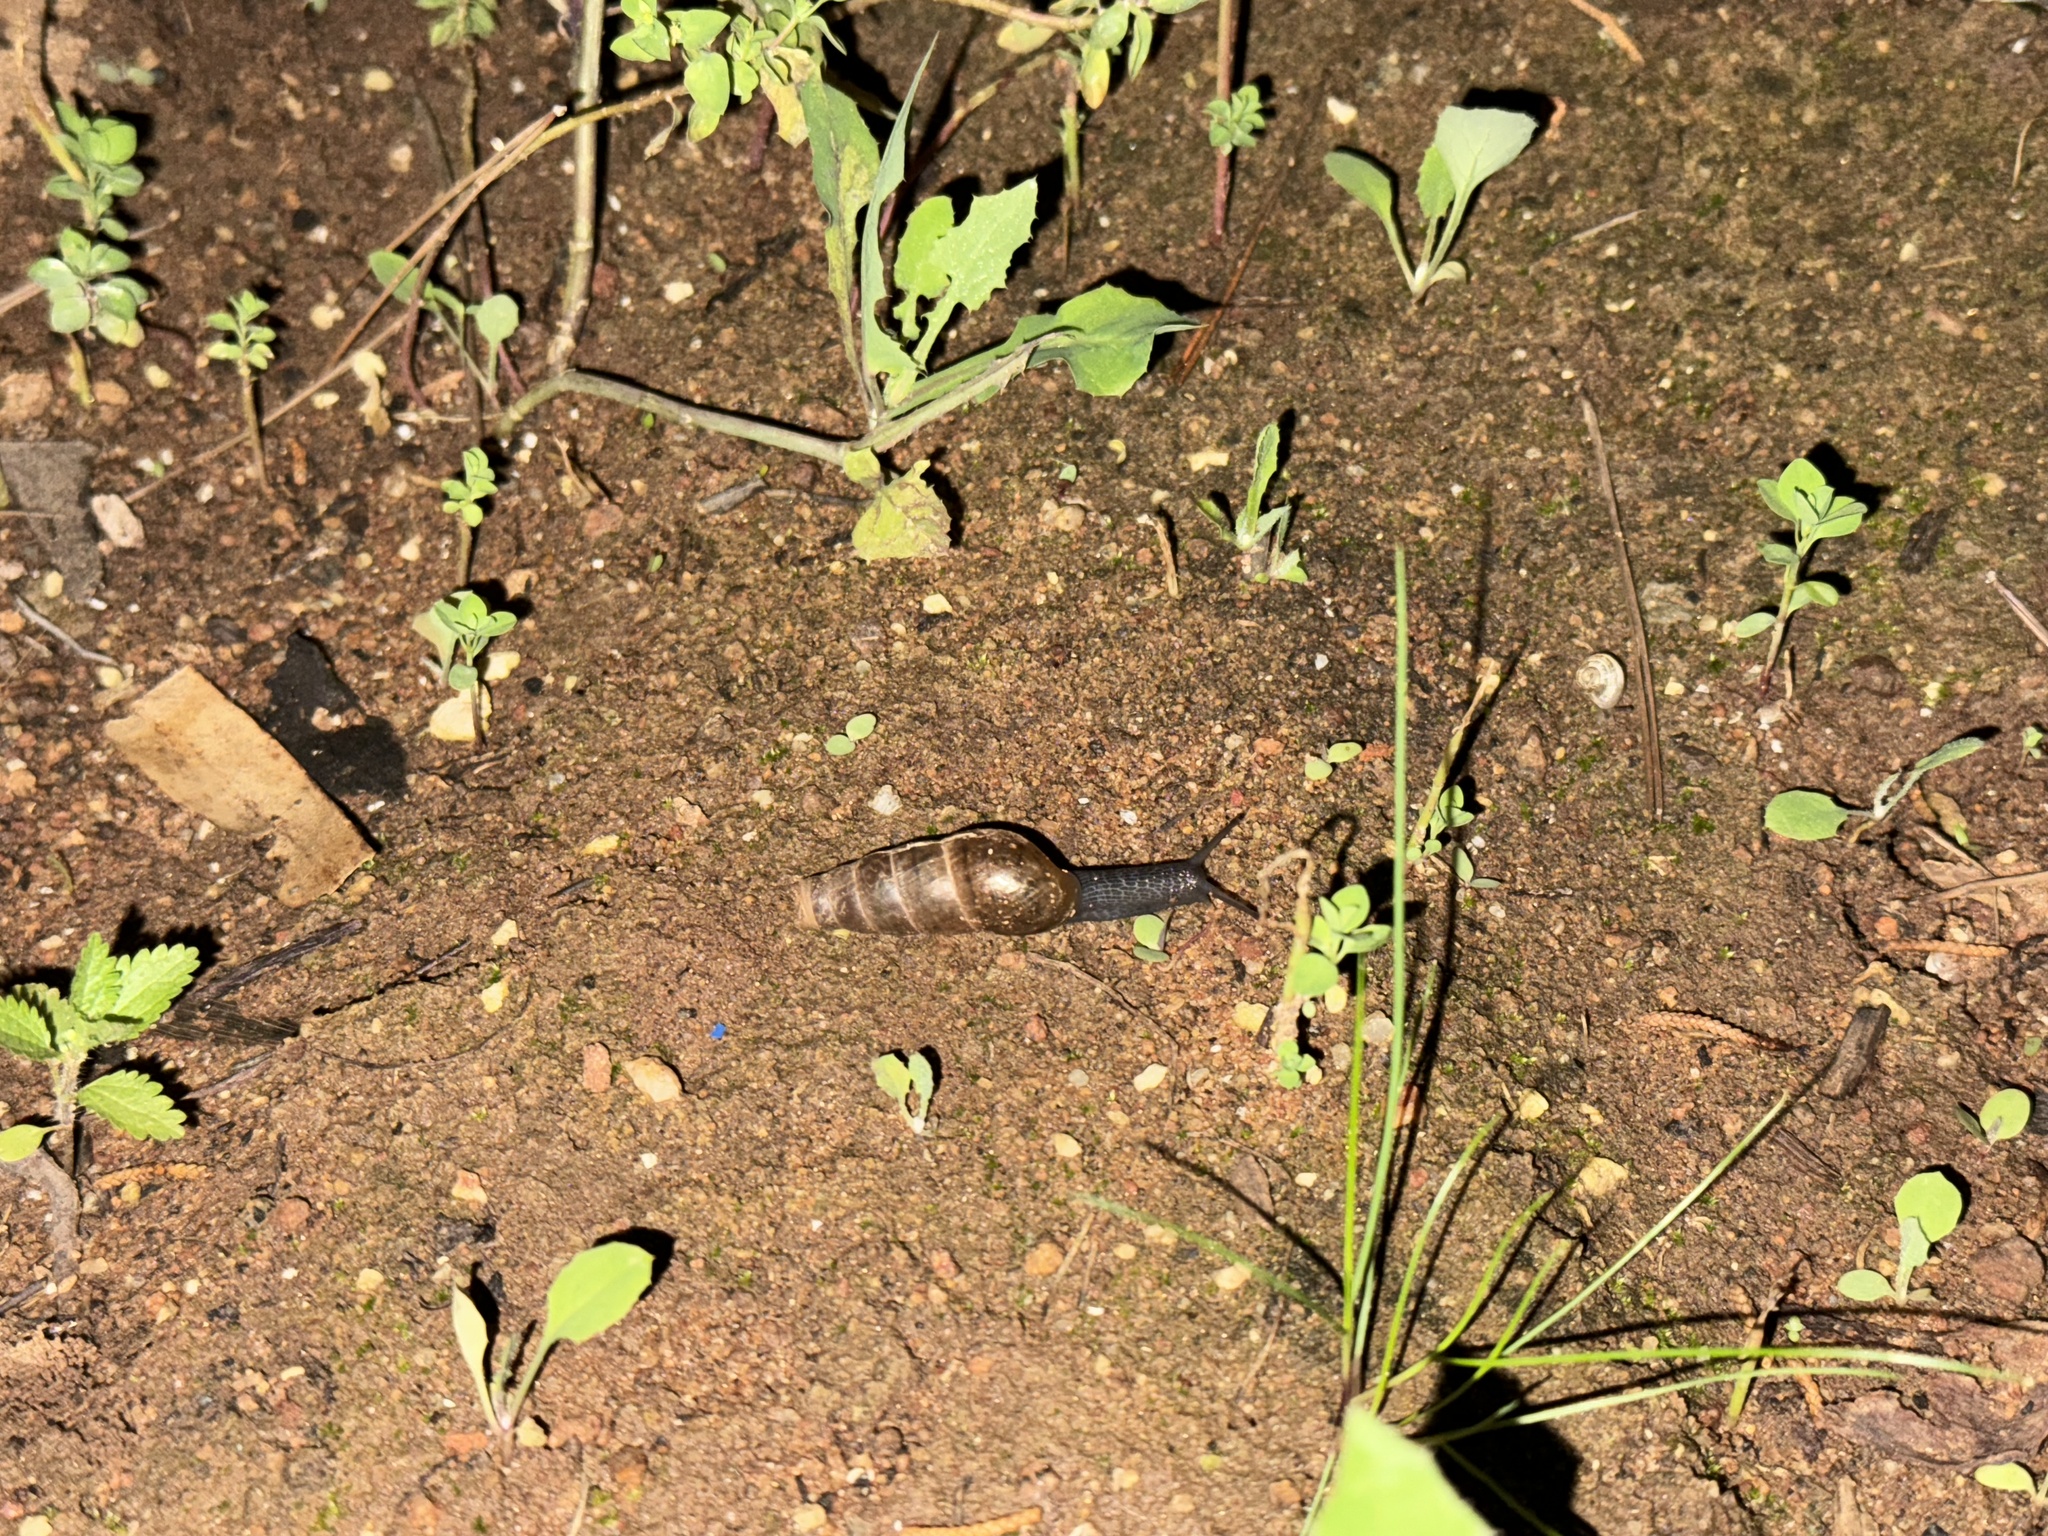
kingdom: Animalia
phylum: Mollusca
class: Gastropoda
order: Stylommatophora
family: Achatinidae
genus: Rumina
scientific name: Rumina decollata
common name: Decollate snail
